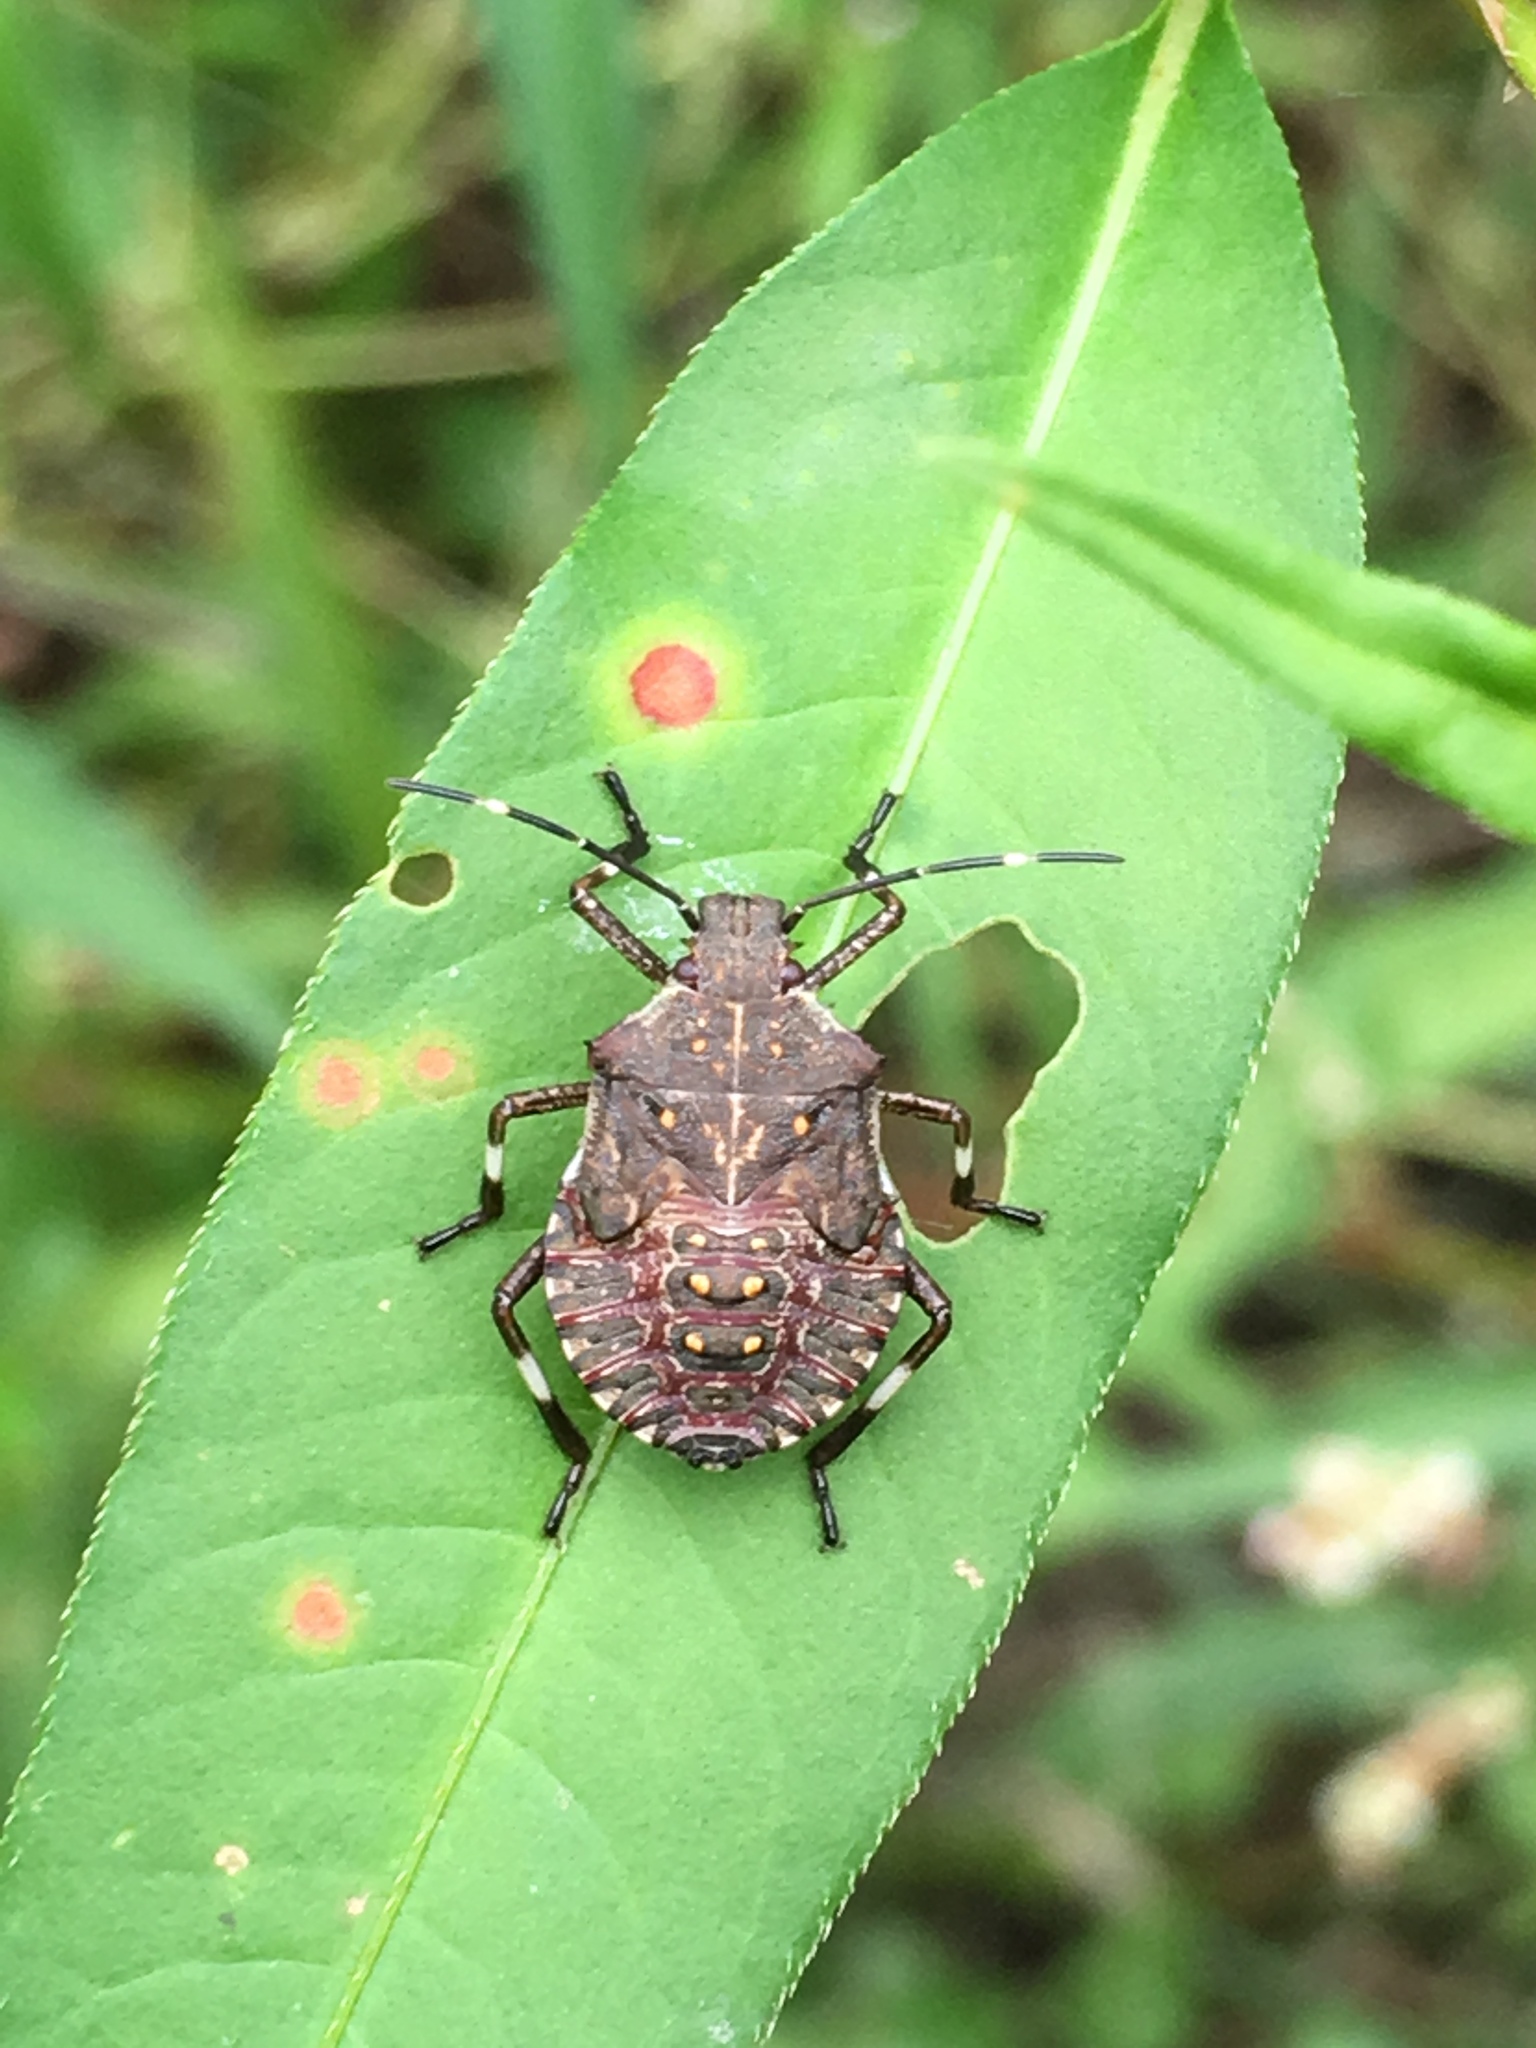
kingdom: Animalia
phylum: Arthropoda
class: Insecta
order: Hemiptera
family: Pentatomidae
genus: Halyomorpha
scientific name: Halyomorpha halys
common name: Brown marmorated stink bug
